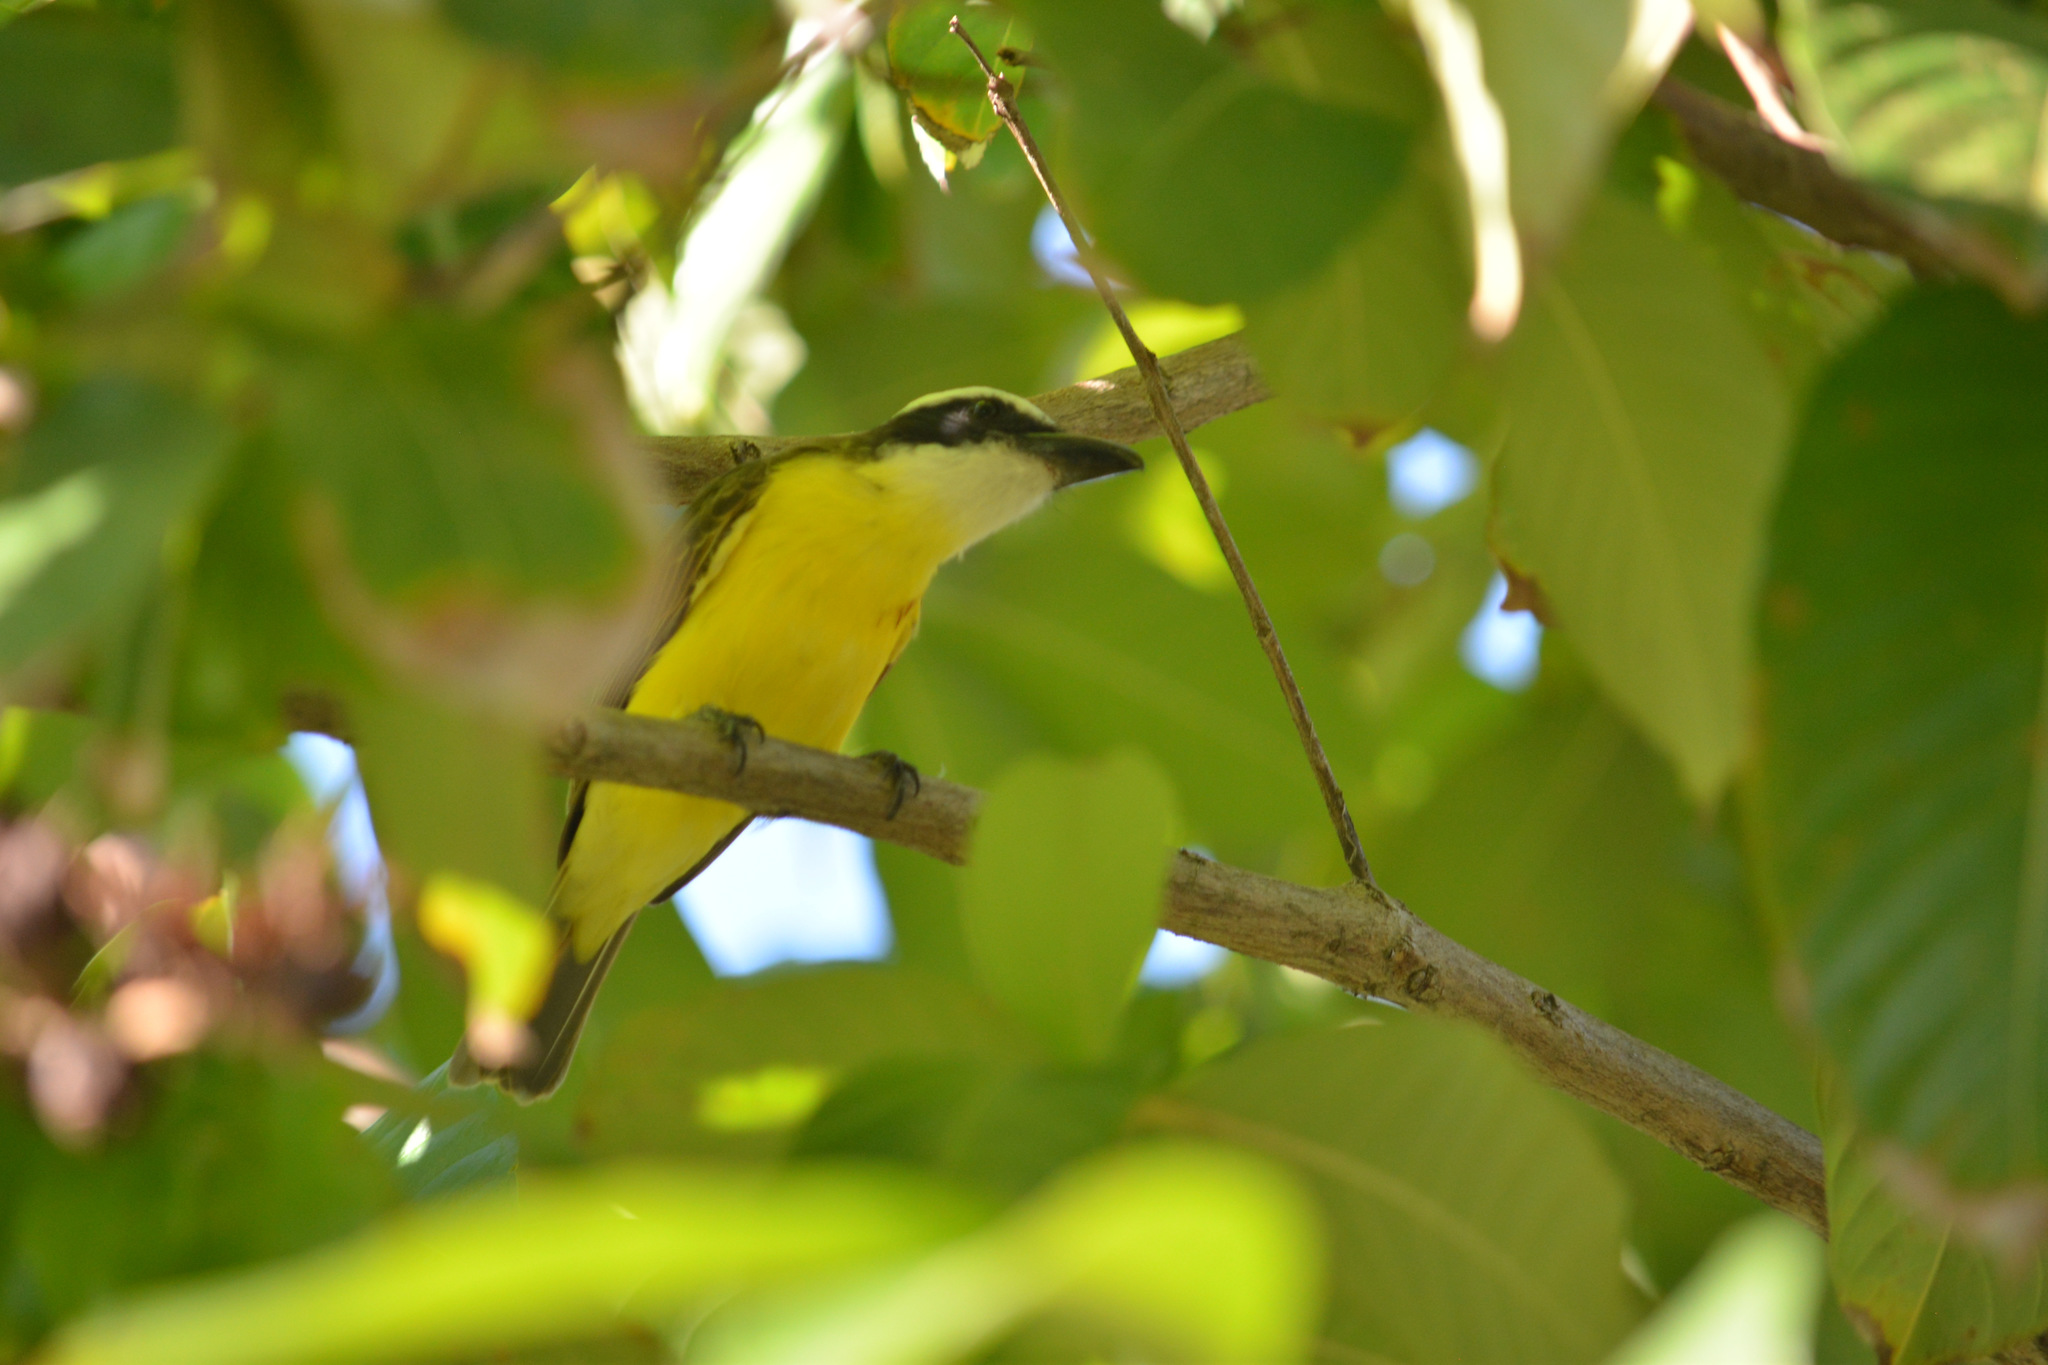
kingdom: Animalia
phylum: Chordata
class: Aves
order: Passeriformes
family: Tyrannidae
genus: Megarynchus
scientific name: Megarynchus pitangua
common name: Boat-billed flycatcher
